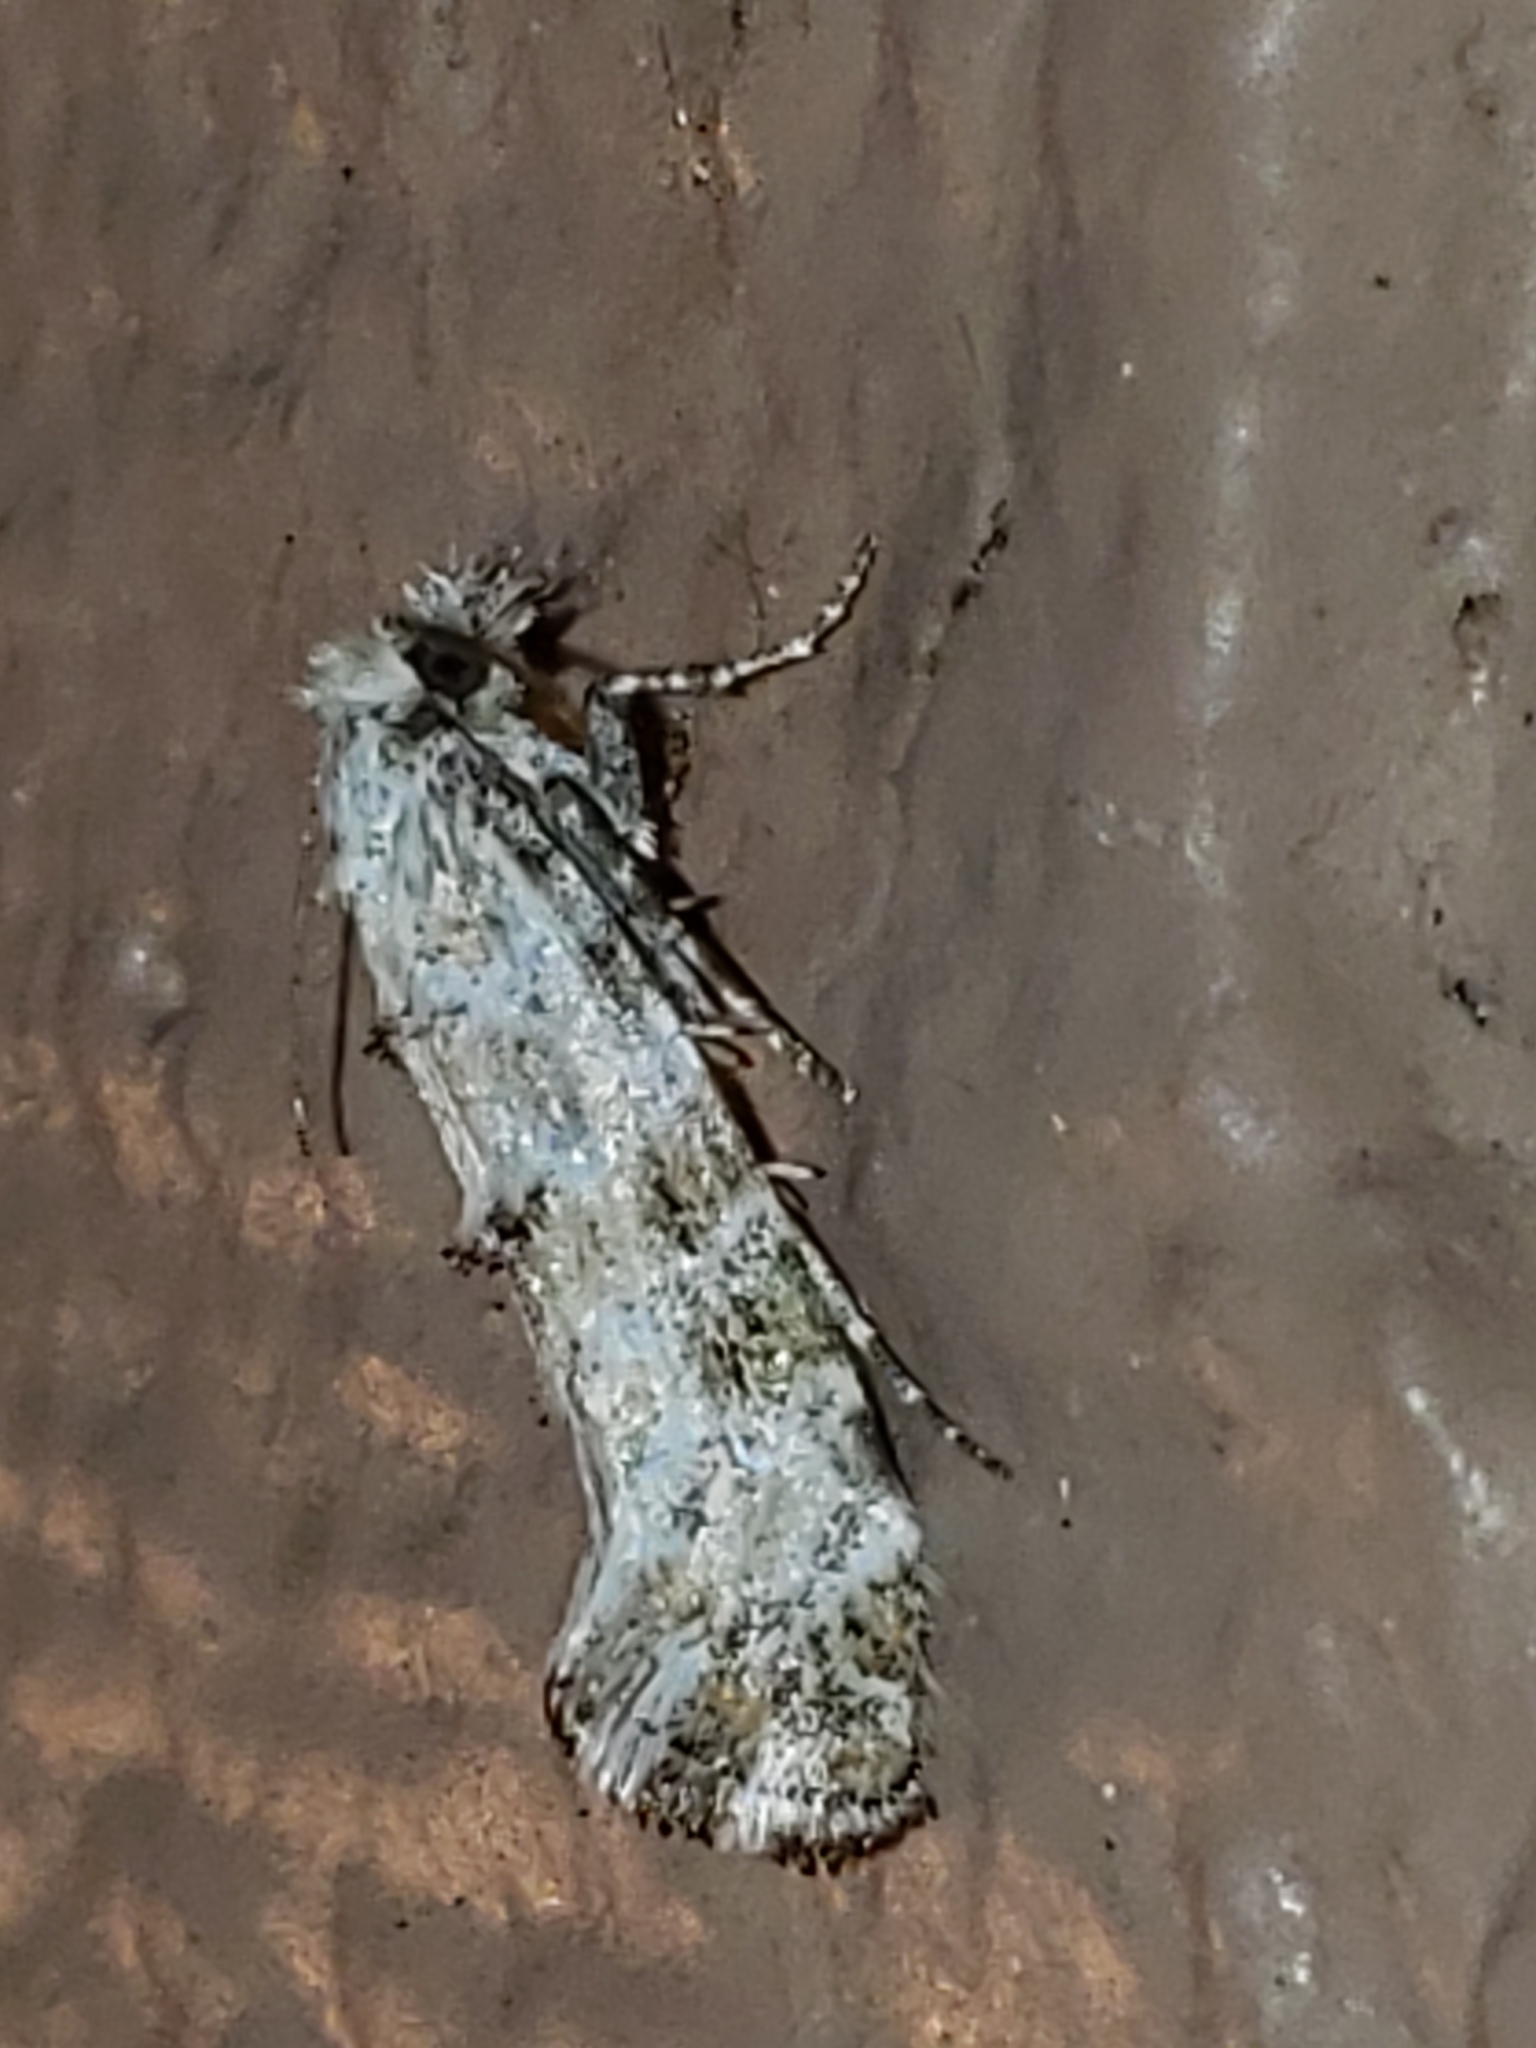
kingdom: Animalia
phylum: Arthropoda
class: Insecta
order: Lepidoptera
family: Tineidae
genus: Xylesthia
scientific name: Xylesthia albicans
